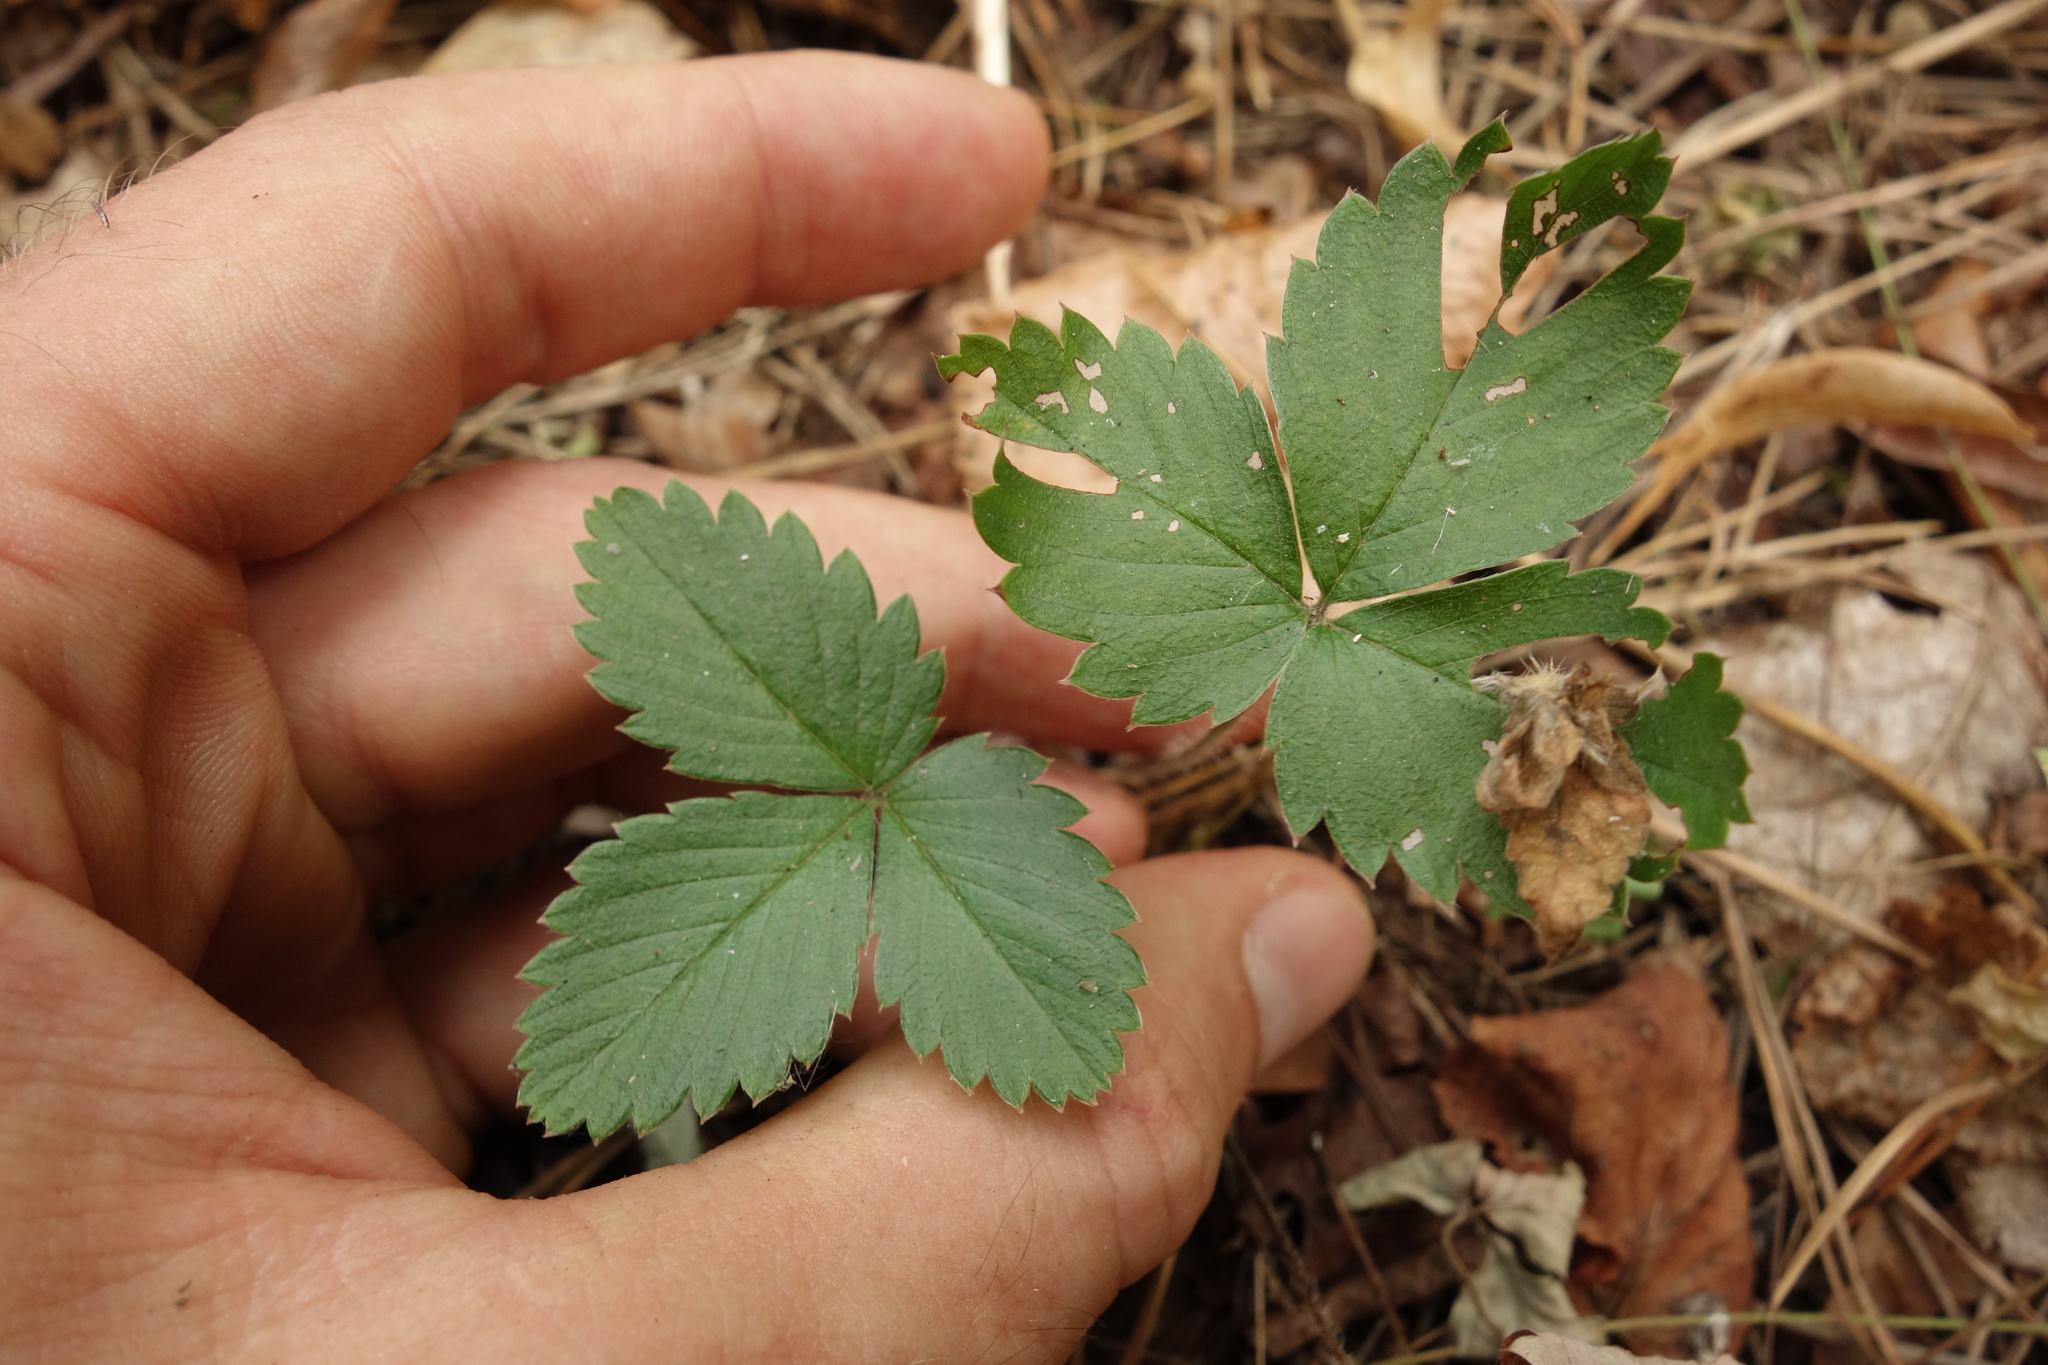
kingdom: Plantae
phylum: Tracheophyta
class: Magnoliopsida
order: Rosales
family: Rosaceae
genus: Fragaria
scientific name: Fragaria vesca
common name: Wild strawberry
